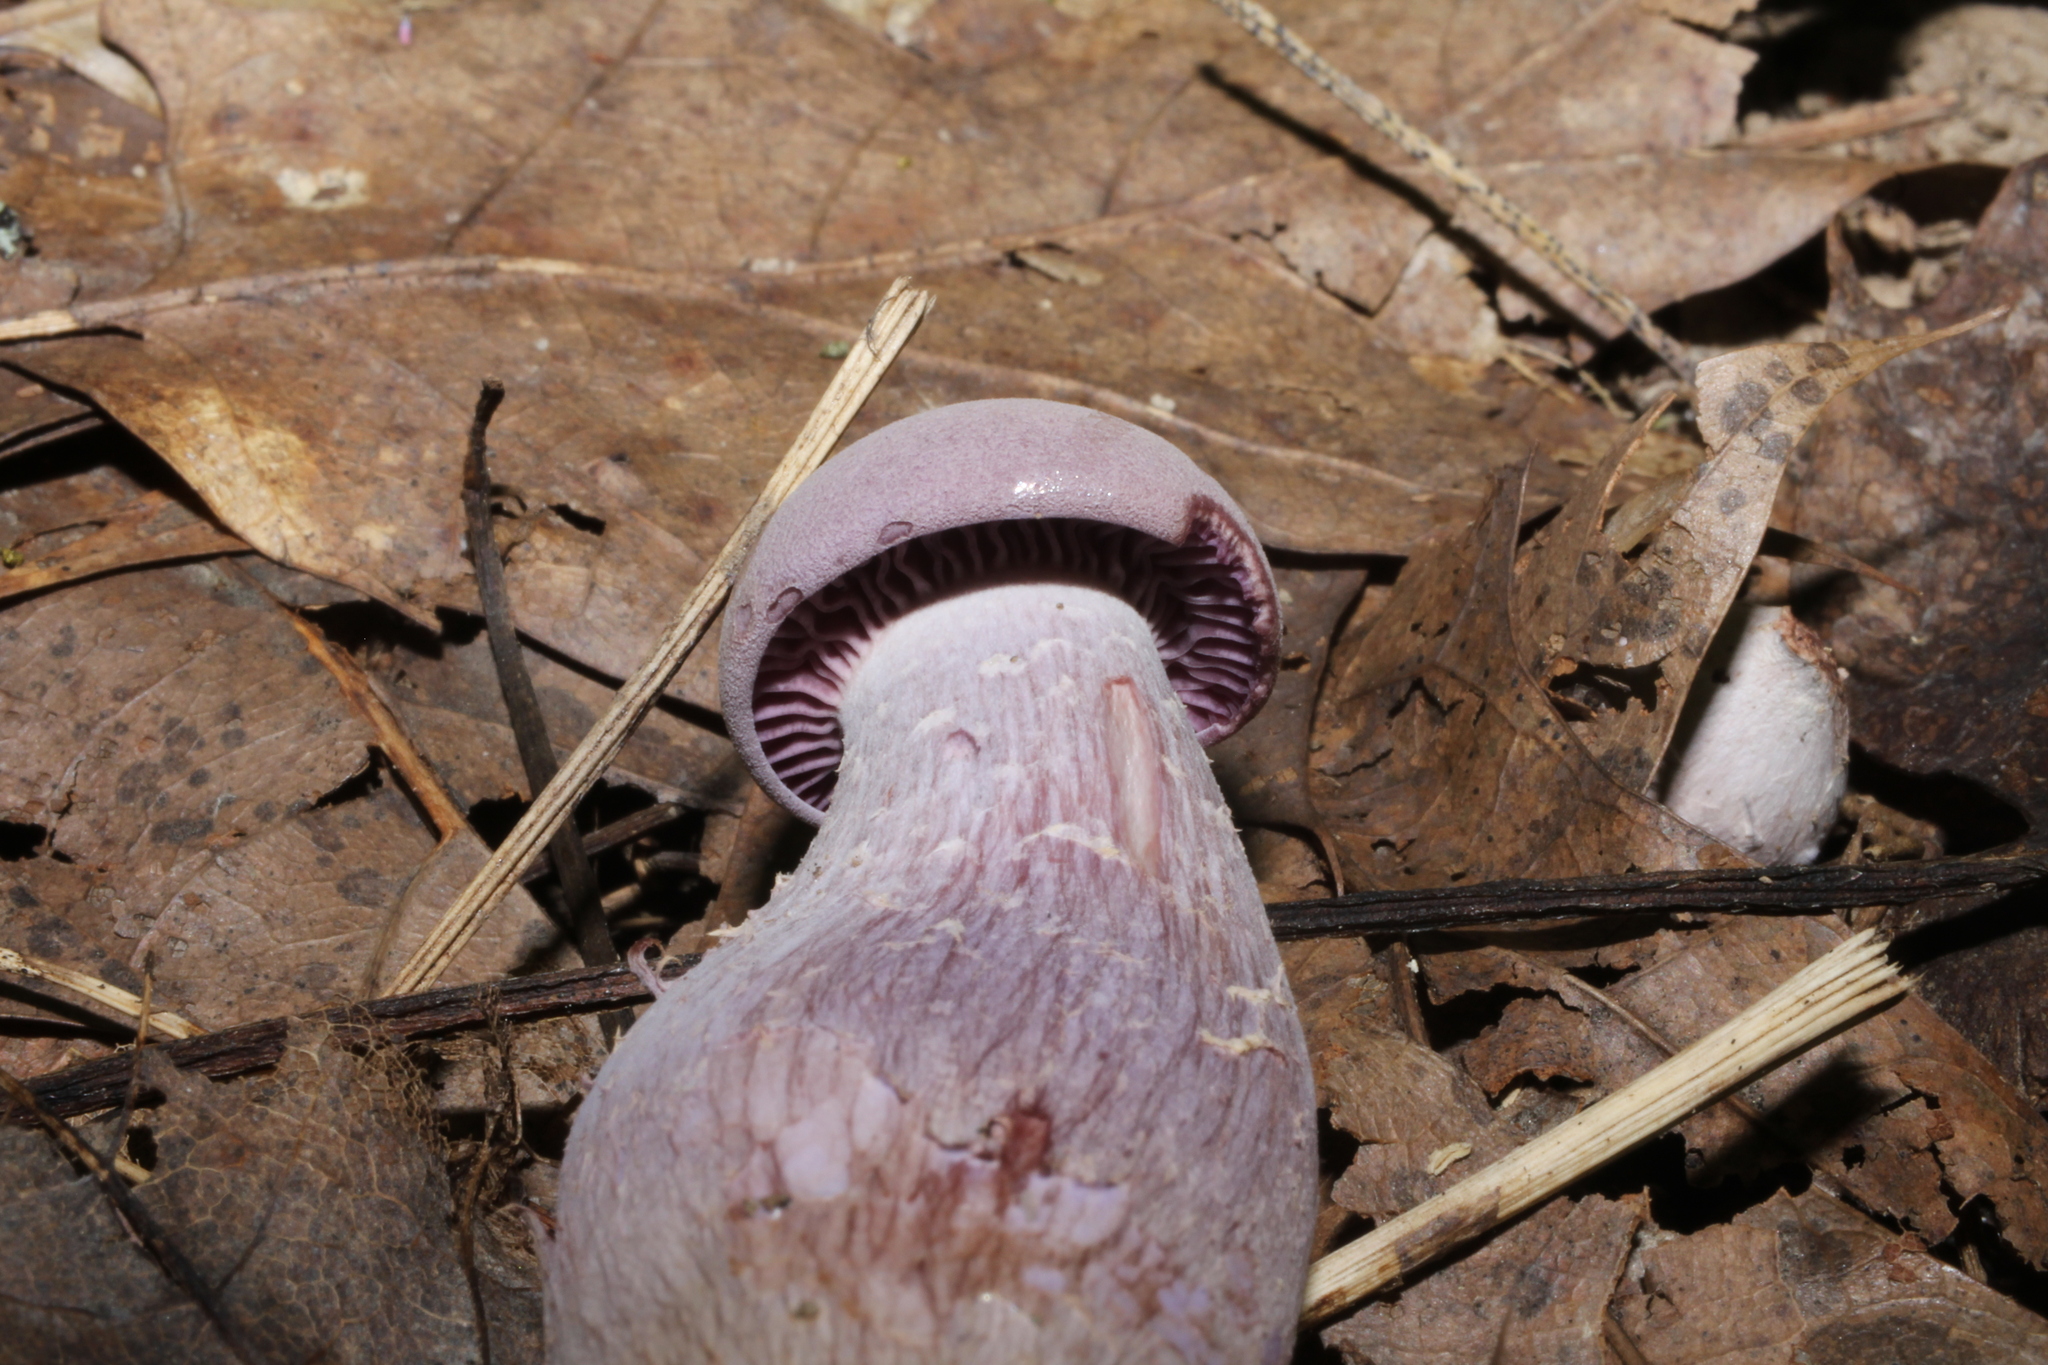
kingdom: Fungi
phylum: Basidiomycota
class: Agaricomycetes
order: Agaricales
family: Hydnangiaceae
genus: Laccaria
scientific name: Laccaria ochropurpurea
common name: Purple laccaria
